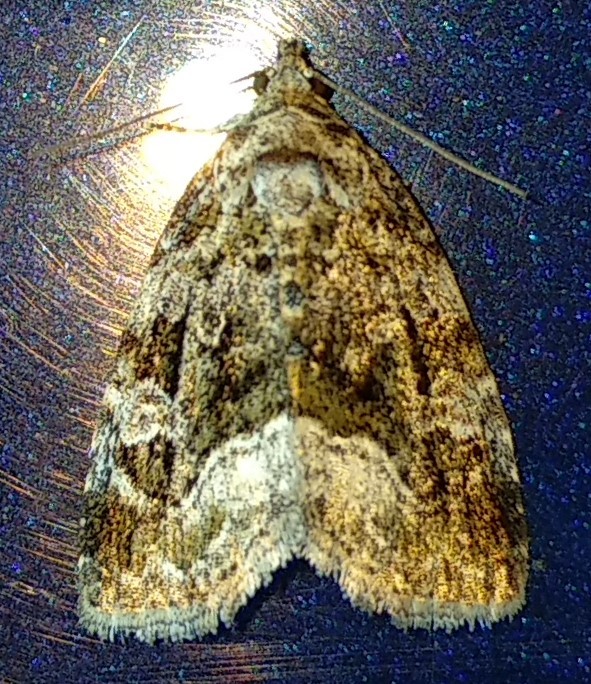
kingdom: Animalia
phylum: Arthropoda
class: Insecta
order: Lepidoptera
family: Noctuidae
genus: Protodeltote
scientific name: Protodeltote muscosula
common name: Large mossy glyph
